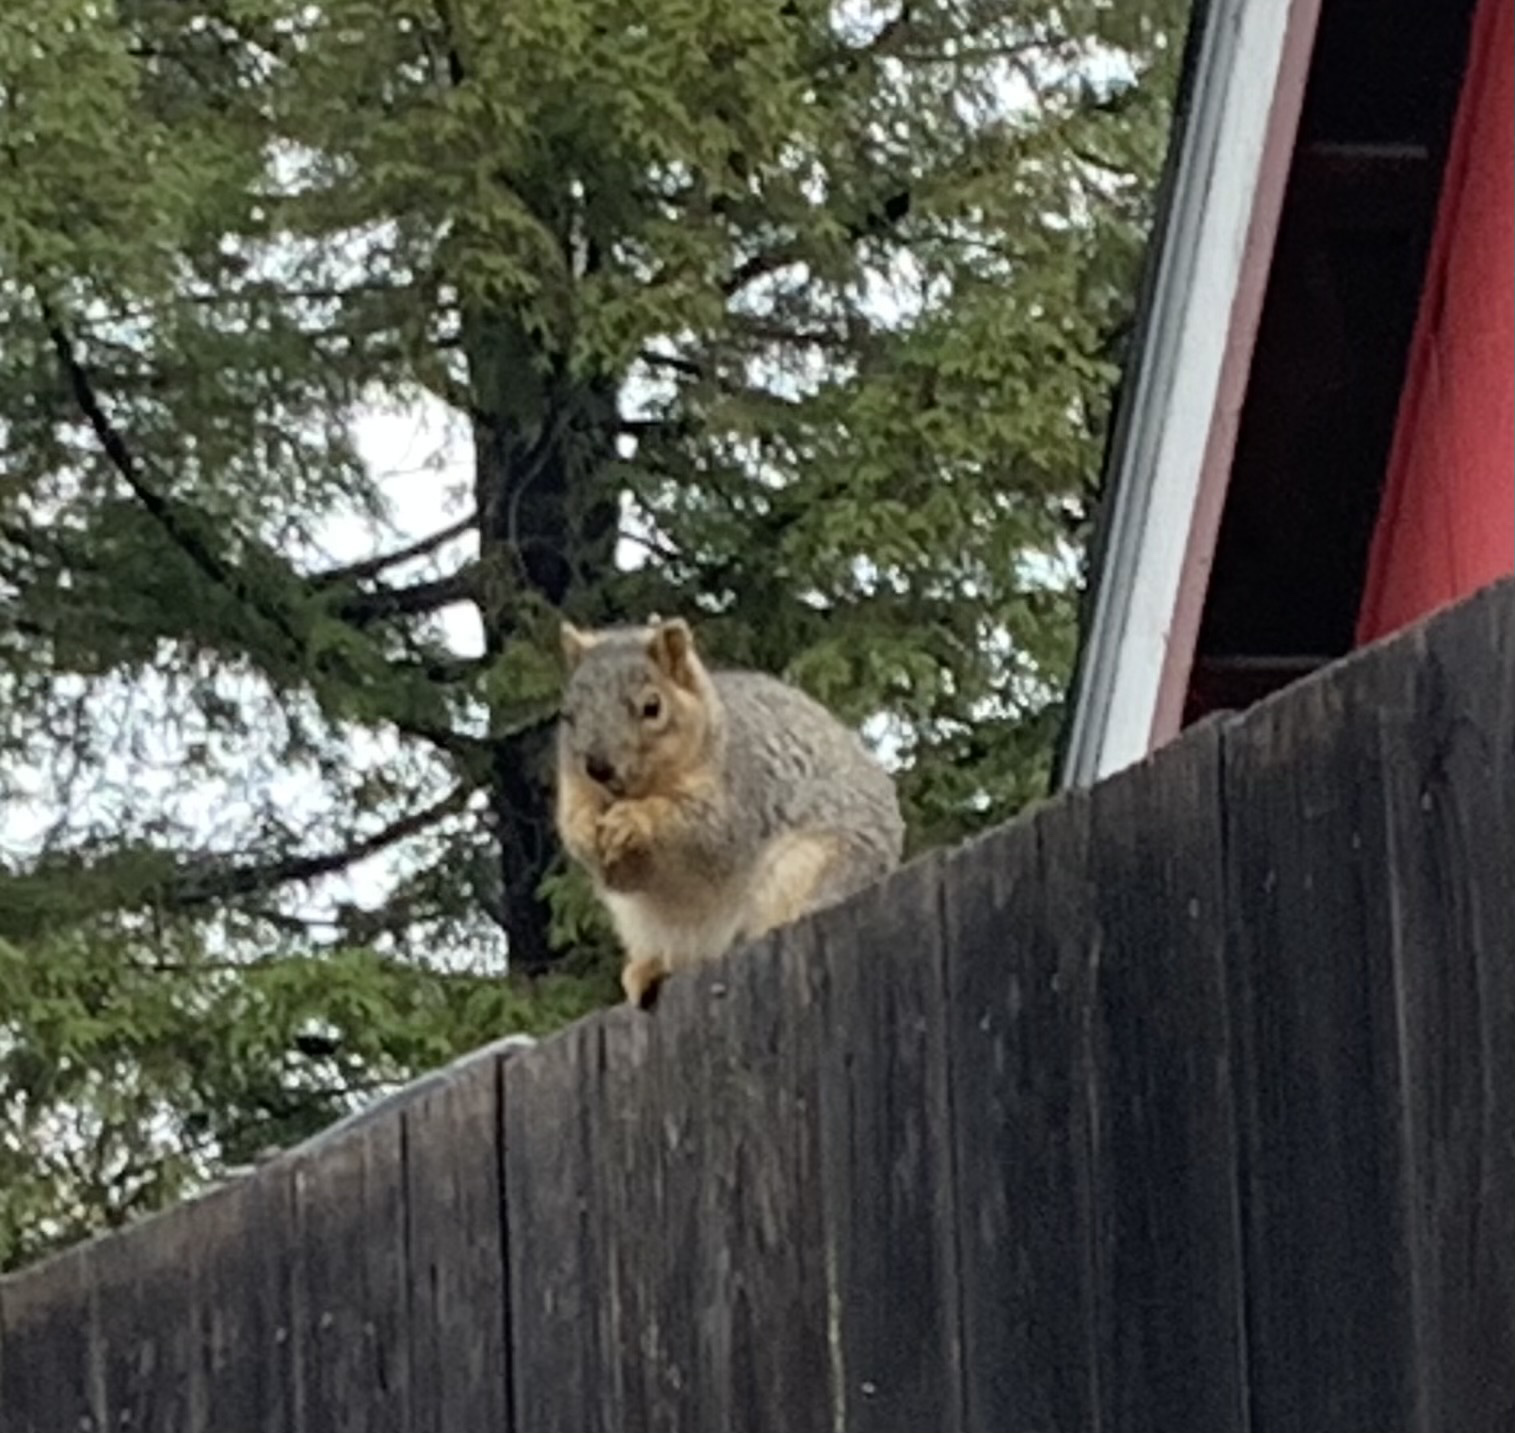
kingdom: Animalia
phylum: Chordata
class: Mammalia
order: Rodentia
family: Sciuridae
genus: Sciurus
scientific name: Sciurus niger
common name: Fox squirrel
